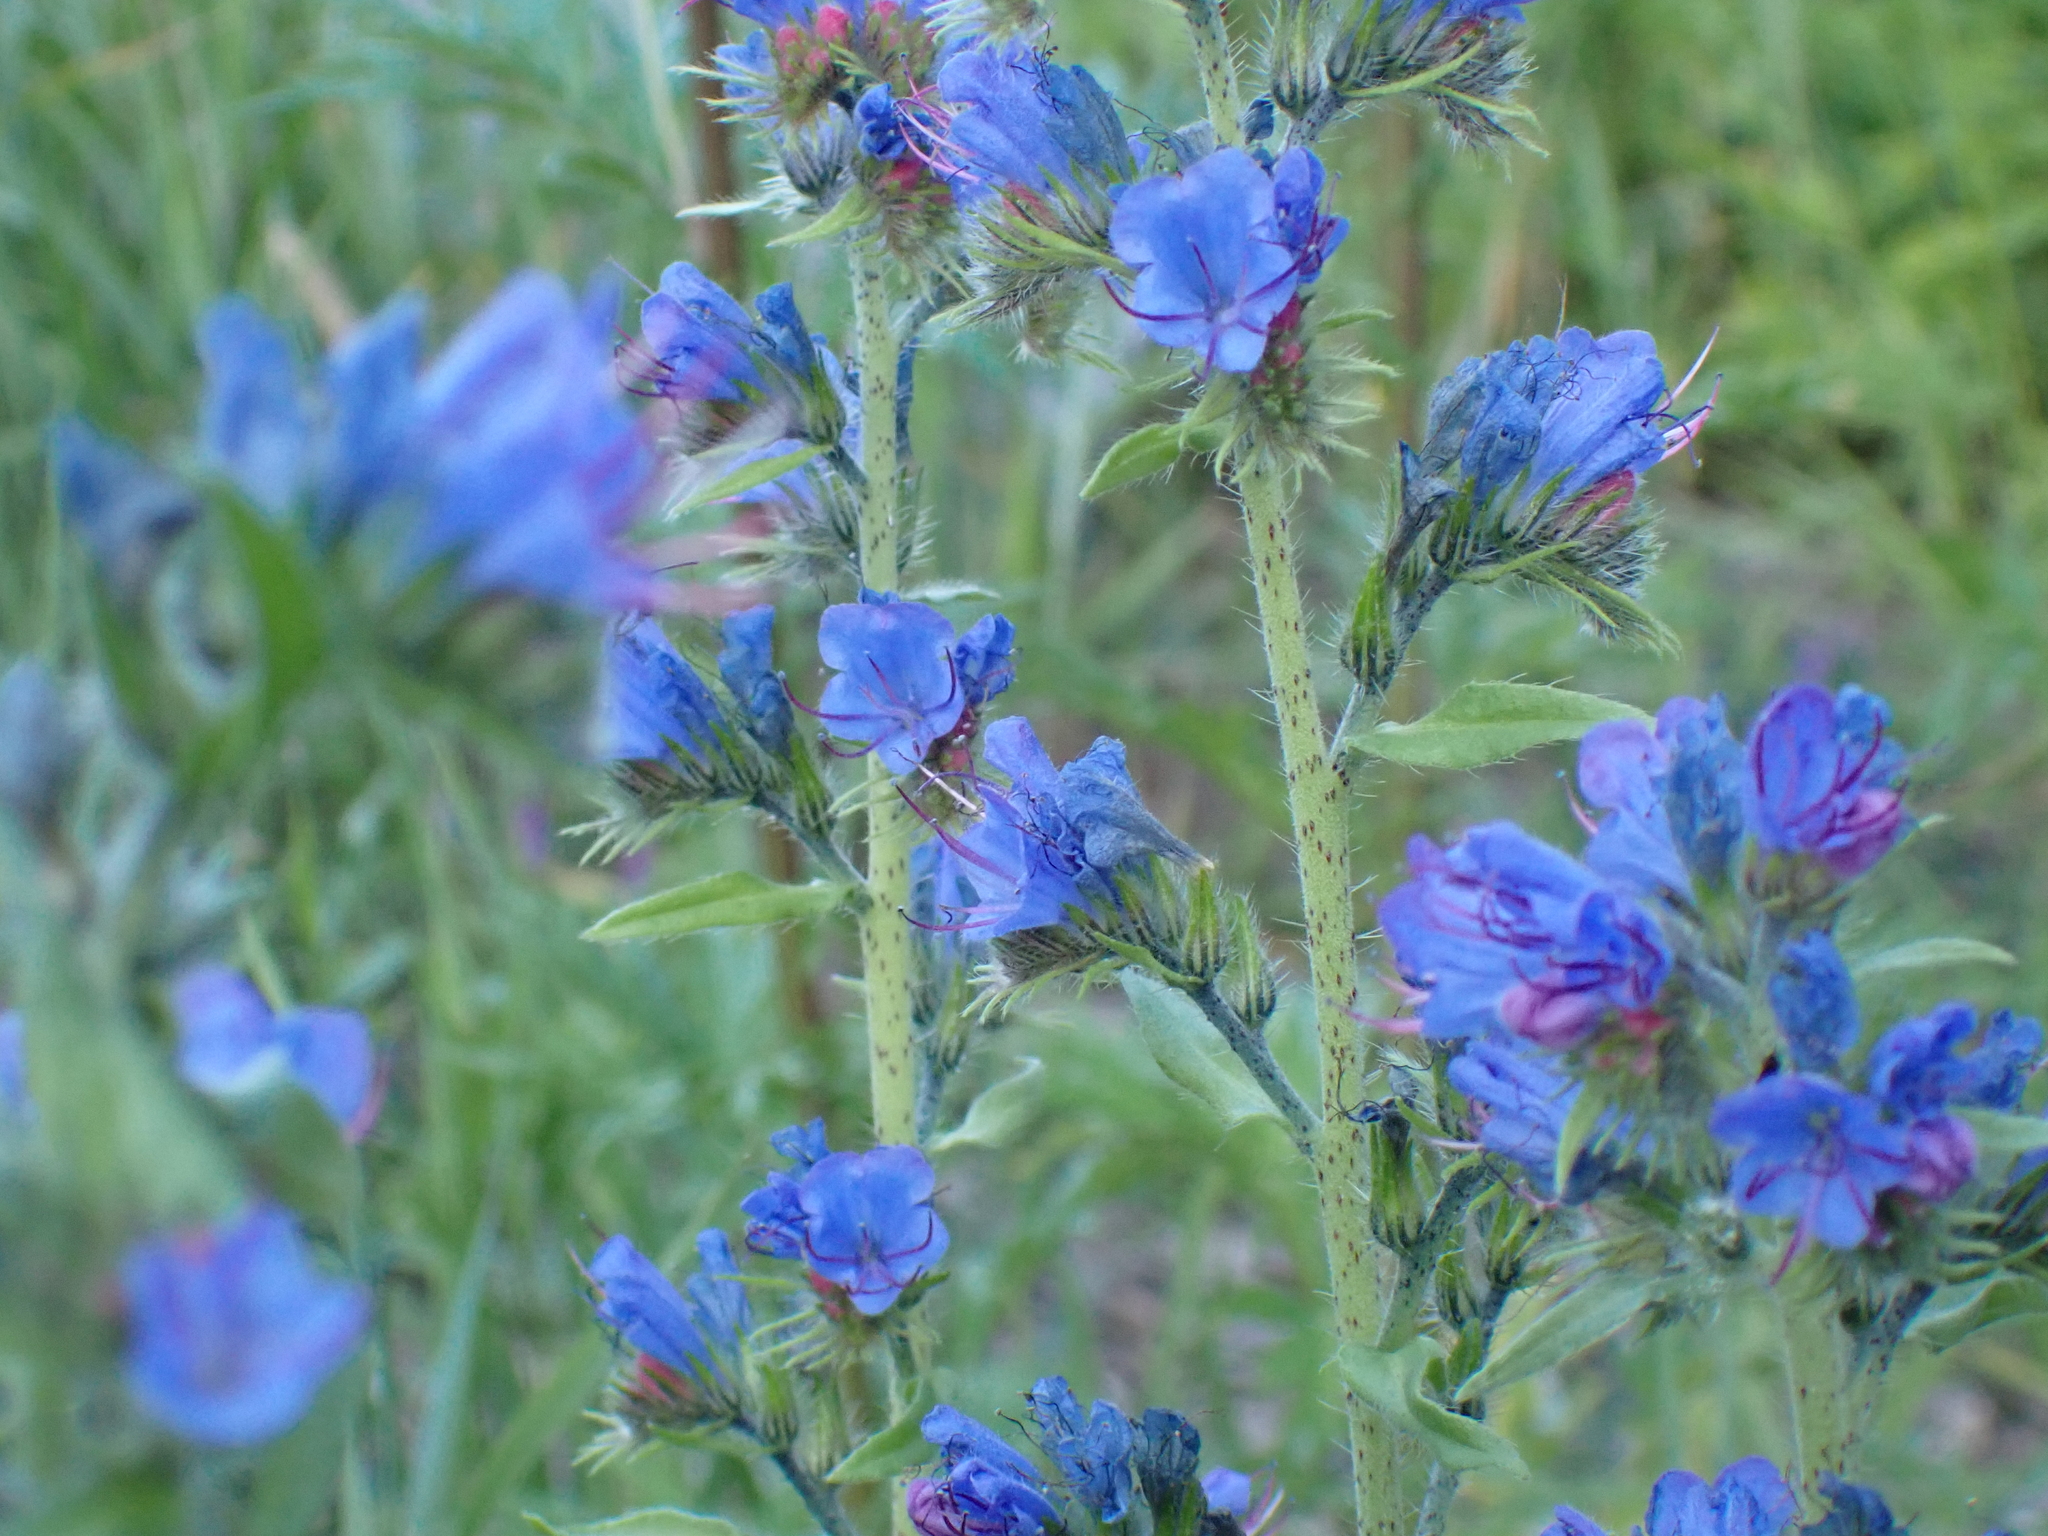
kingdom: Plantae
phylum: Tracheophyta
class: Magnoliopsida
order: Boraginales
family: Boraginaceae
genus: Echium
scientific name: Echium vulgare
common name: Common viper's bugloss
